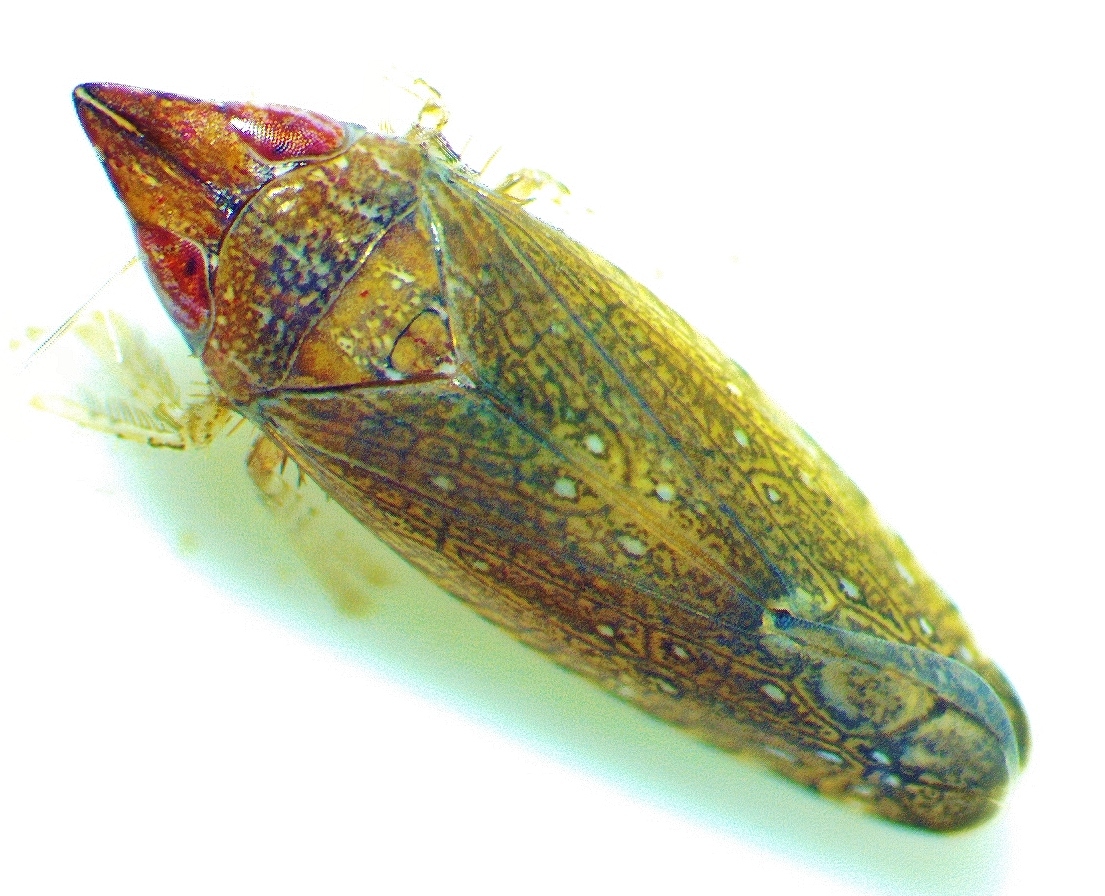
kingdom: Animalia
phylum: Arthropoda
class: Insecta
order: Hemiptera
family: Cicadellidae
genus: Scaphytopius
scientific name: Scaphytopius rubellus
